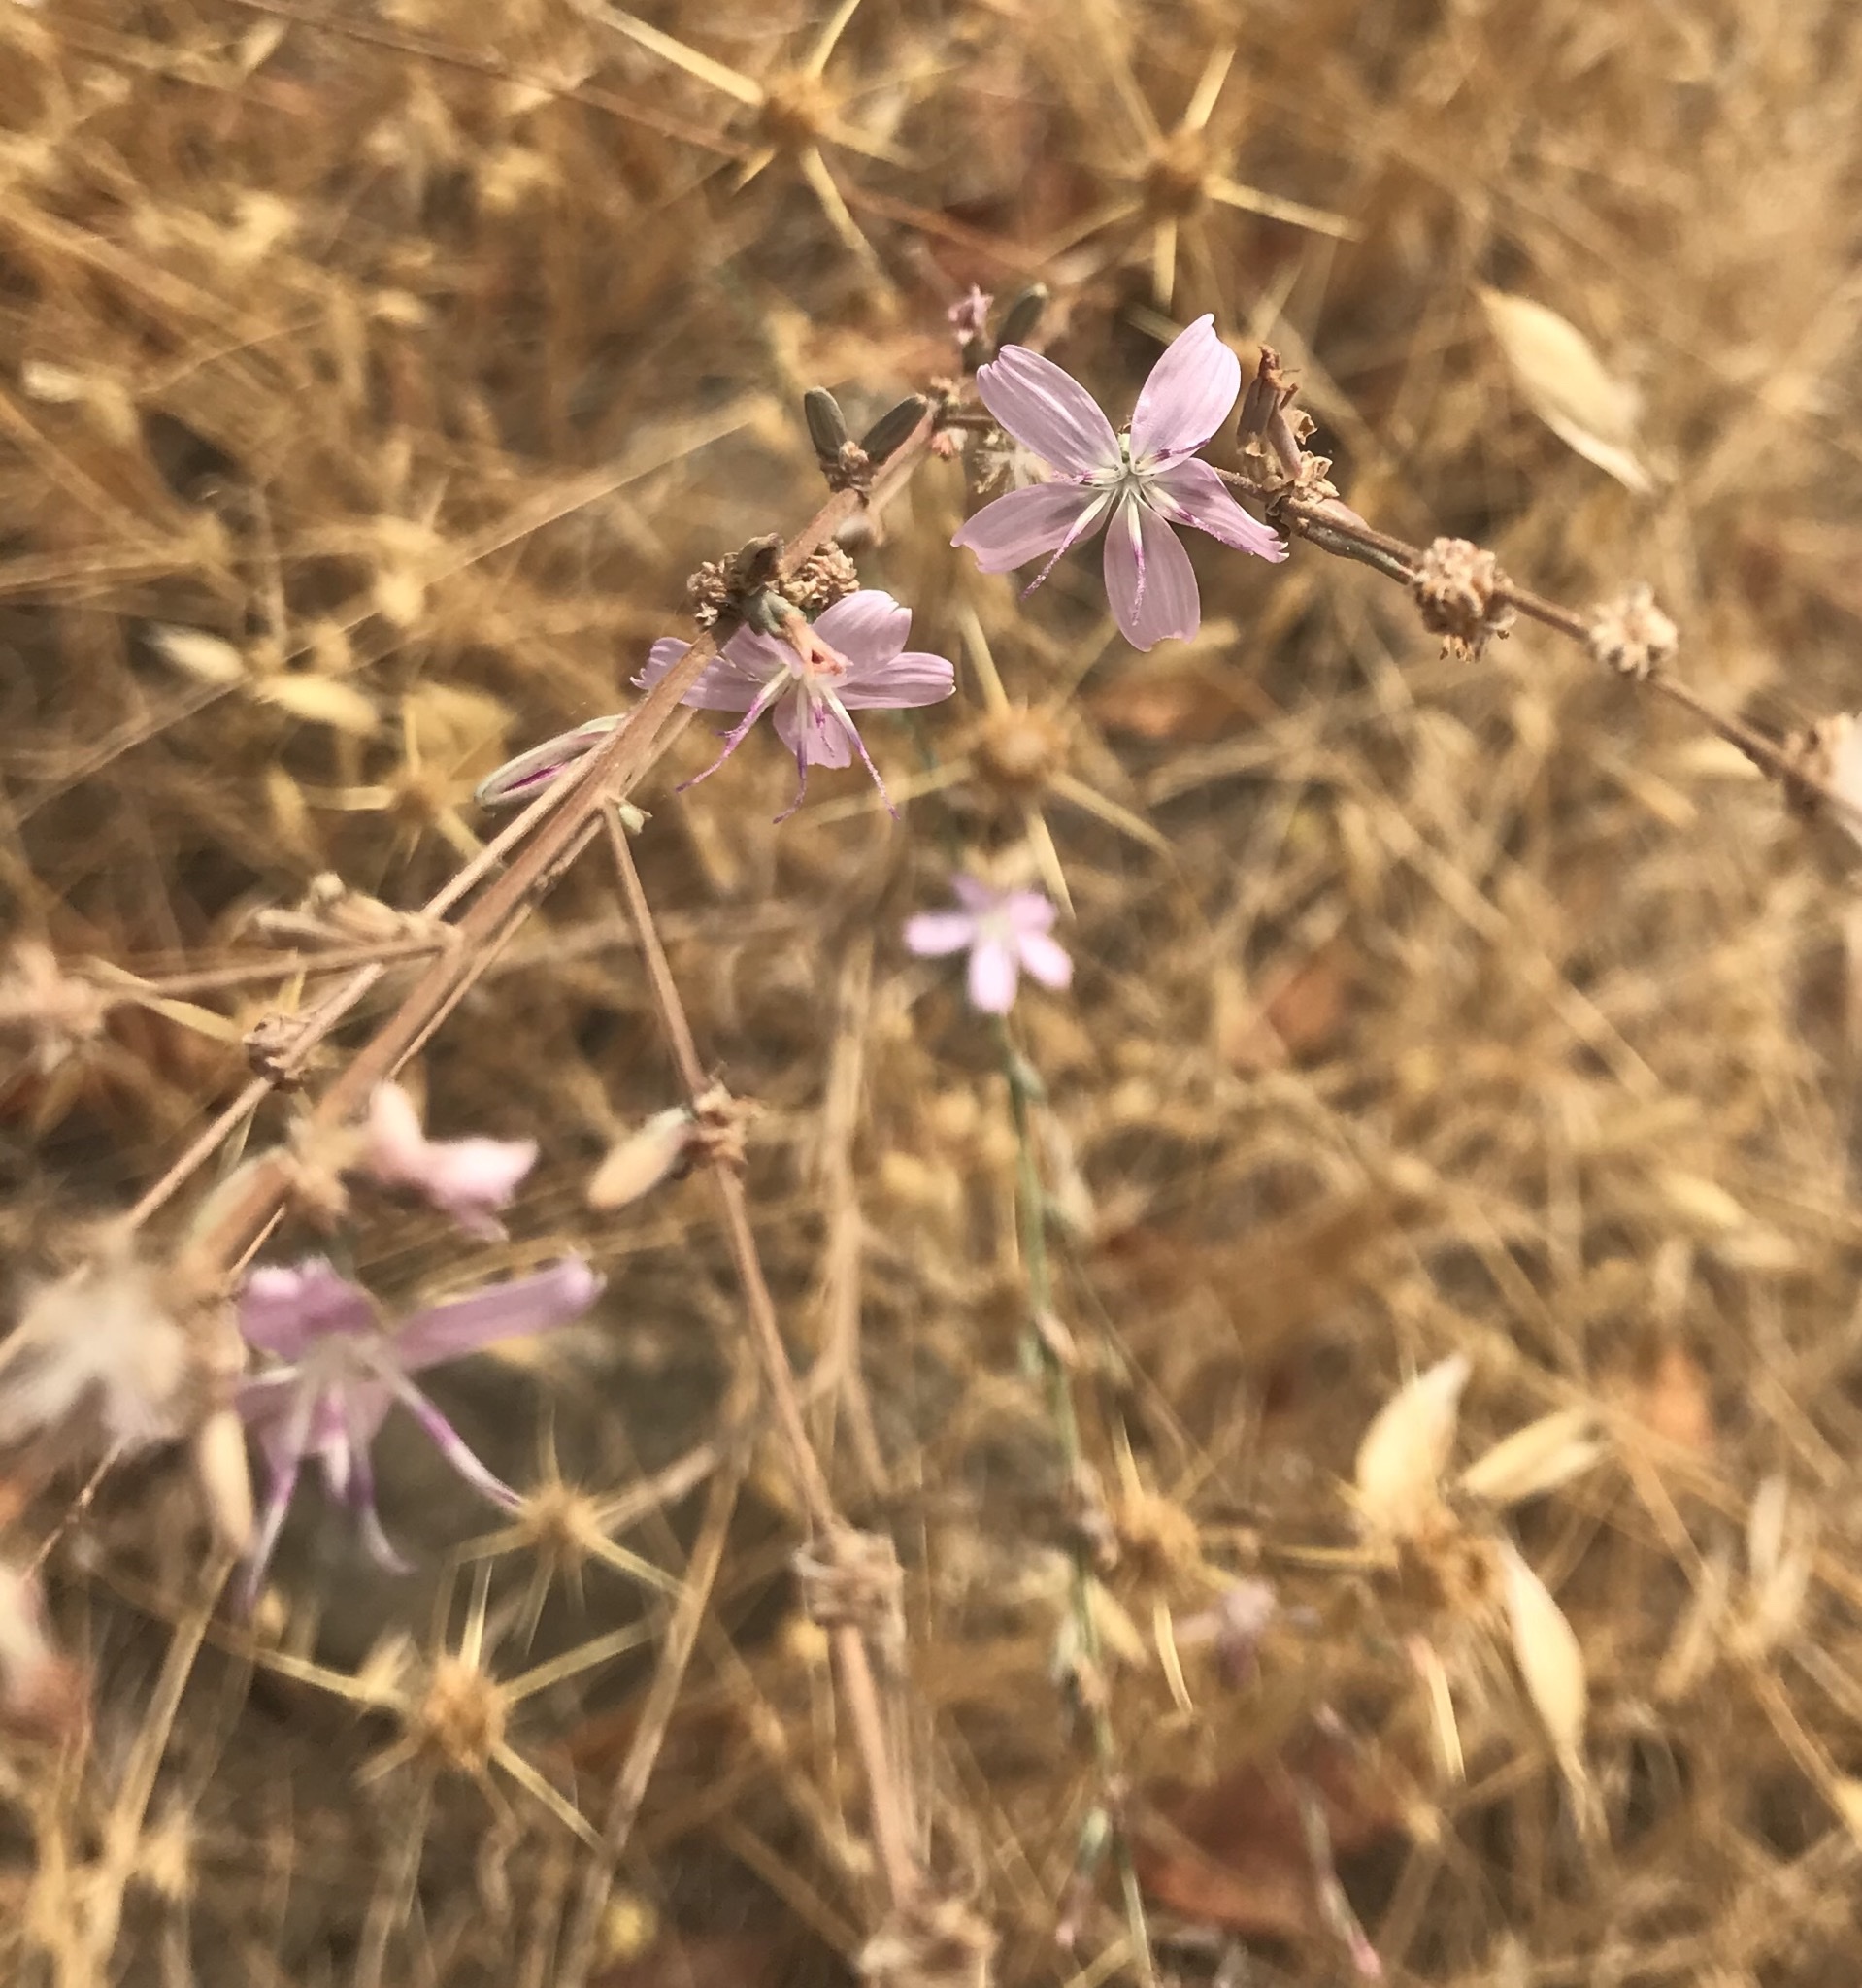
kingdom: Plantae
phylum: Tracheophyta
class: Magnoliopsida
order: Asterales
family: Asteraceae
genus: Stephanomeria
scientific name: Stephanomeria virgata
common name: Virgate wirelettuce
